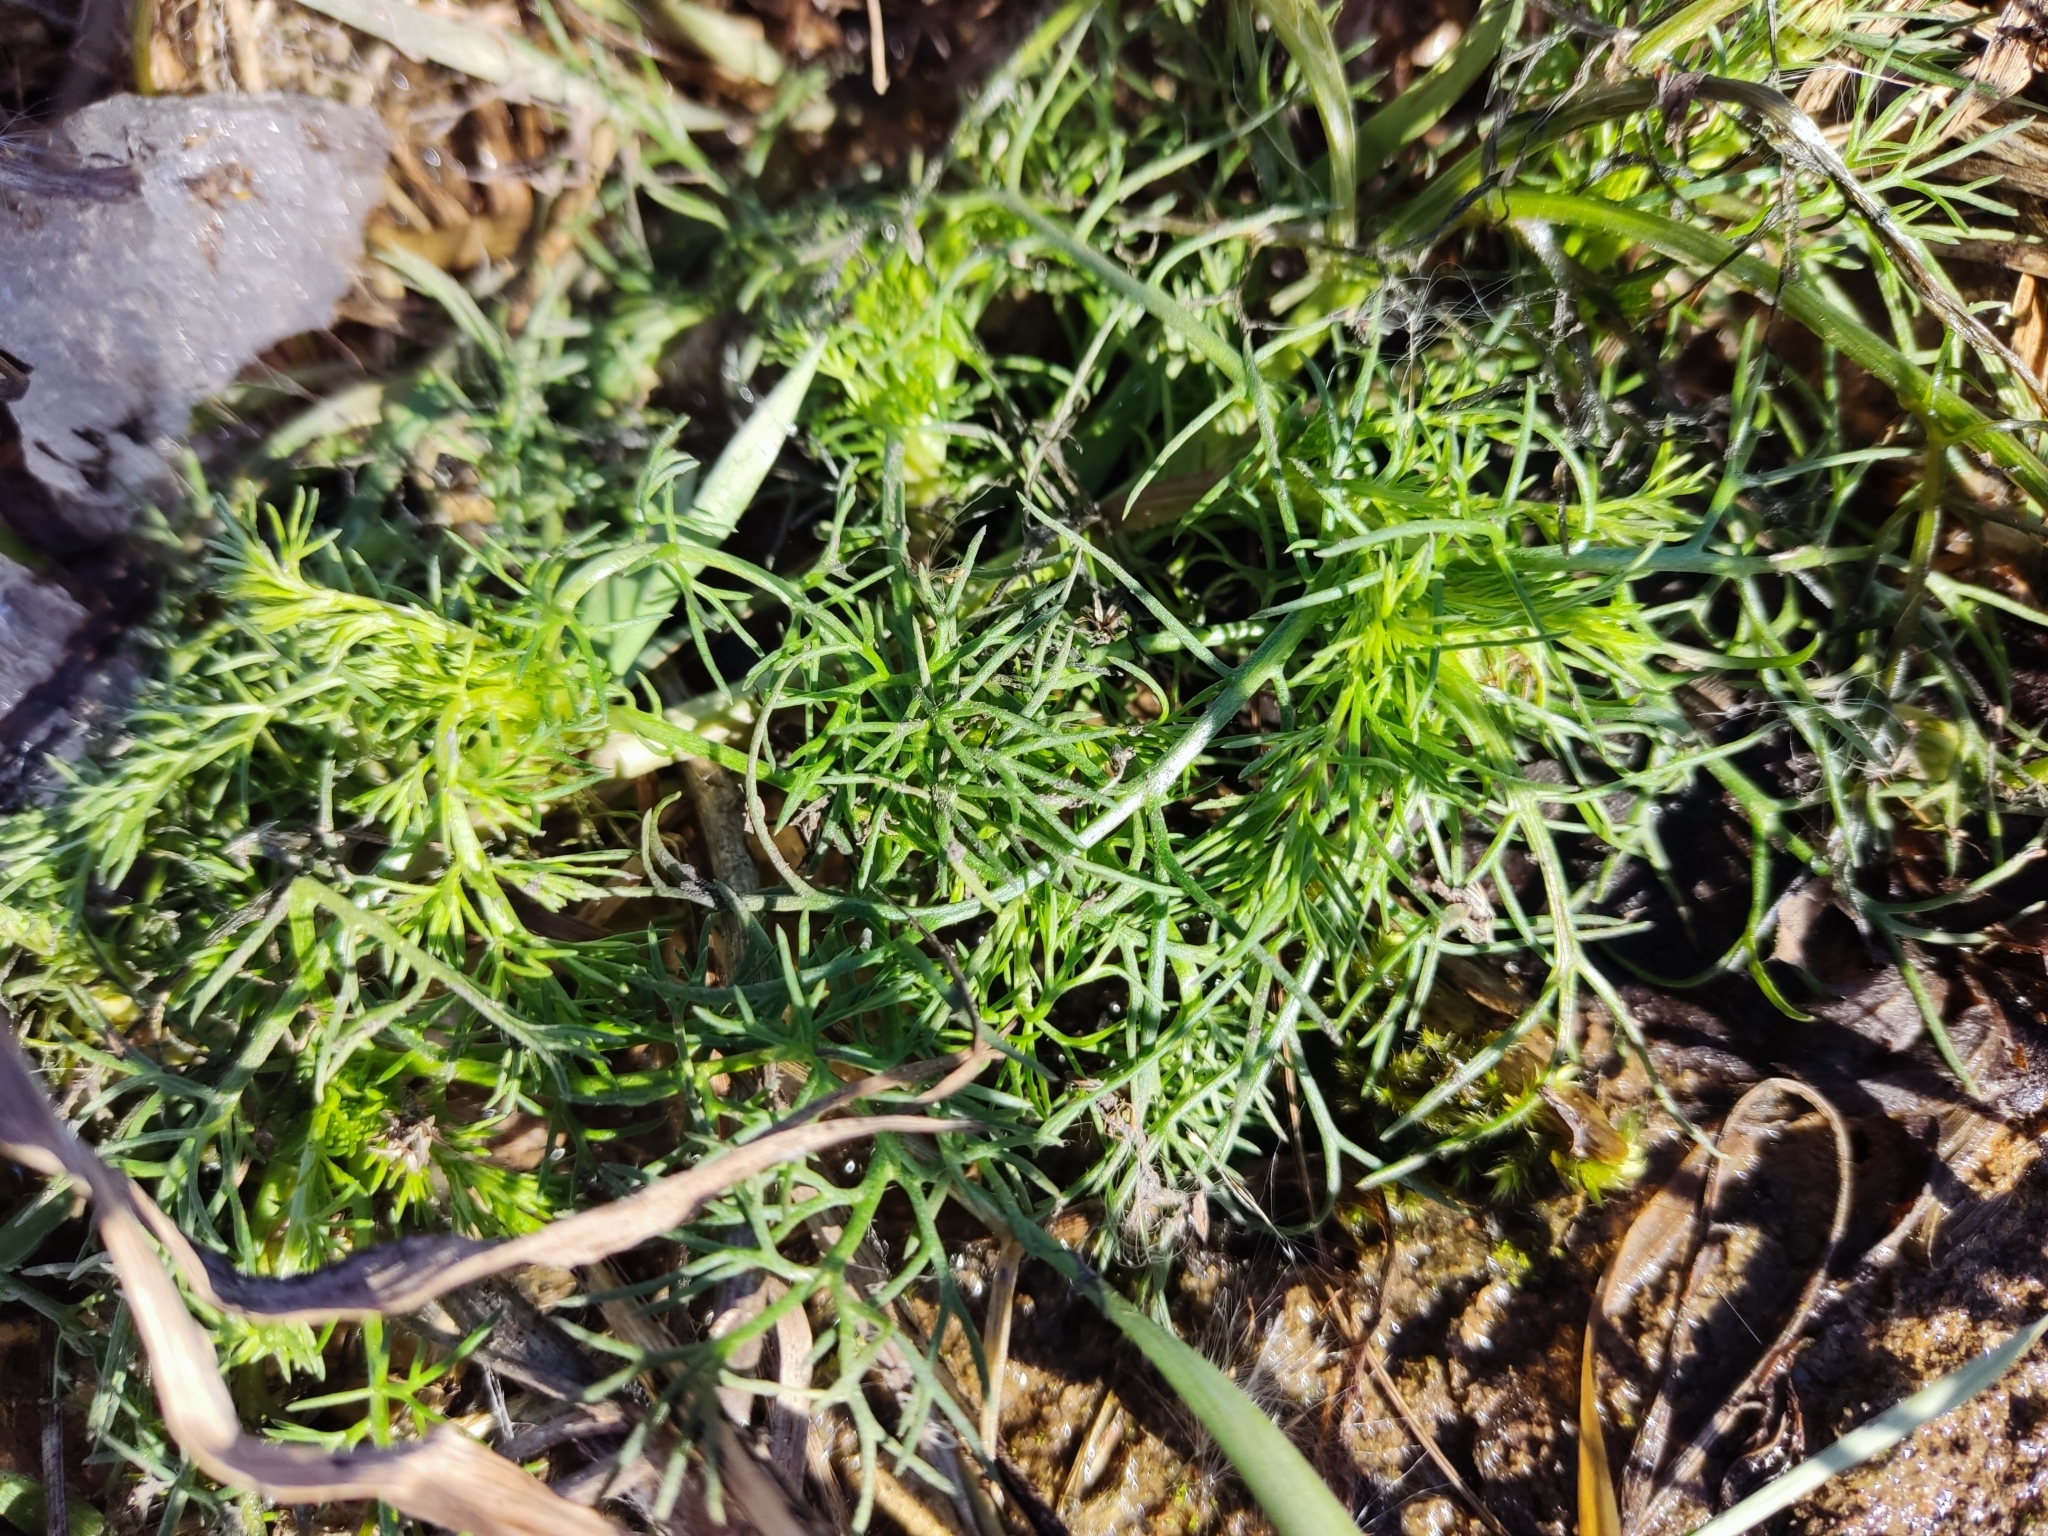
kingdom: Plantae
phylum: Tracheophyta
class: Magnoliopsida
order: Asterales
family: Asteraceae
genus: Tripleurospermum
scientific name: Tripleurospermum inodorum
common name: Scentless mayweed
